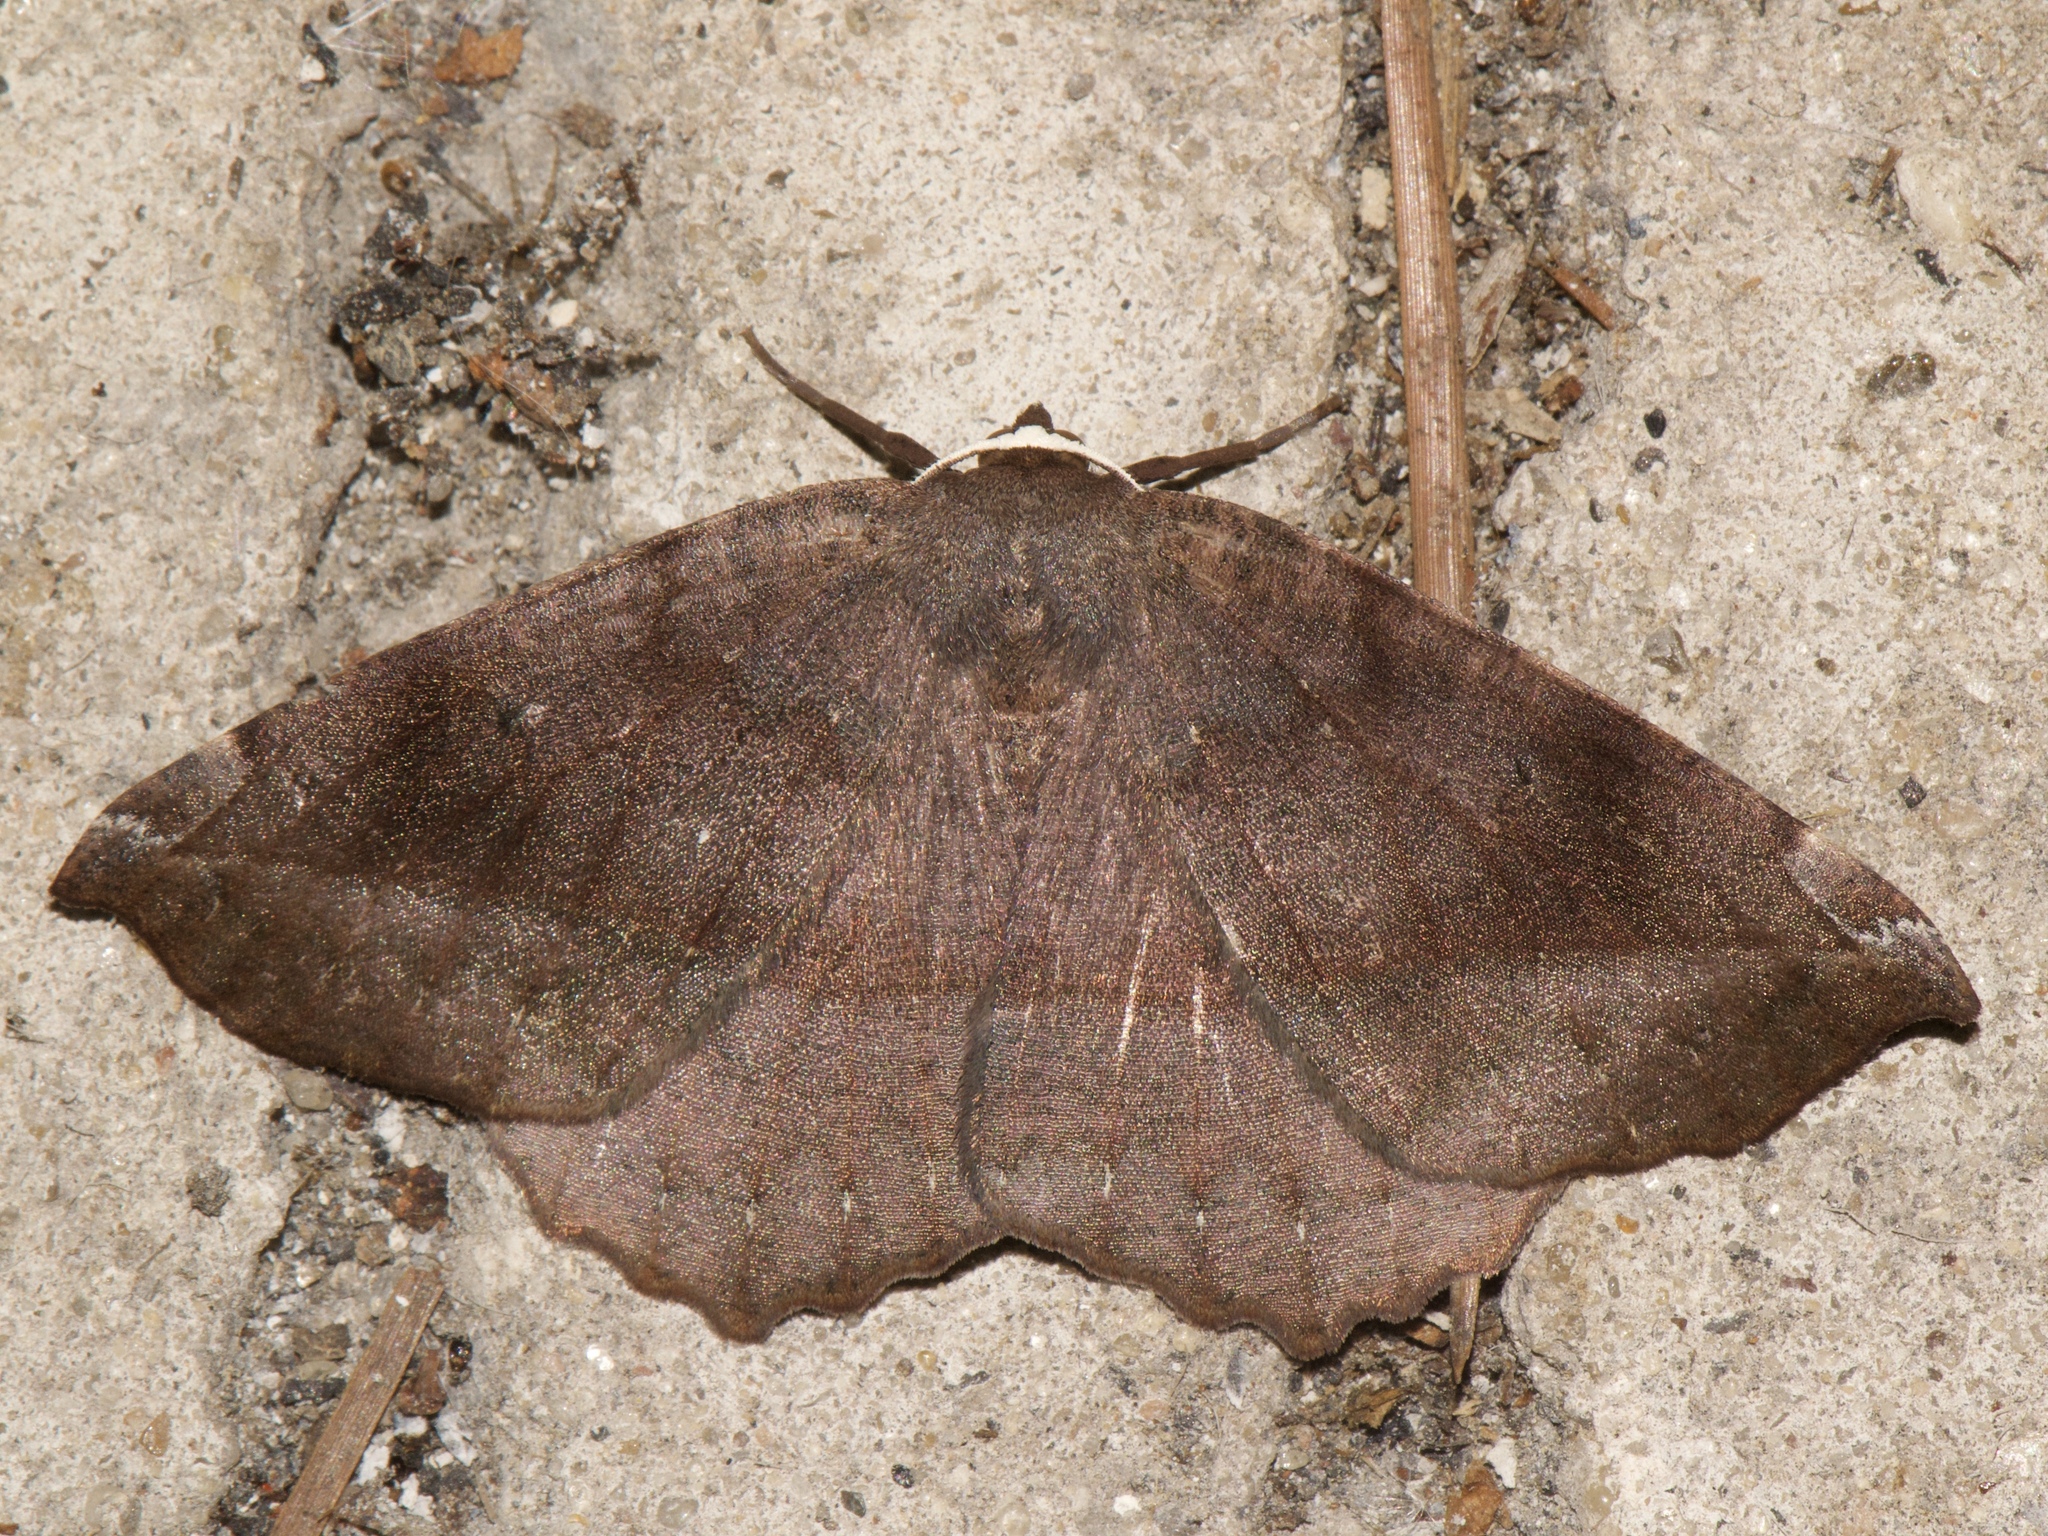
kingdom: Animalia
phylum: Arthropoda
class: Insecta
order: Lepidoptera
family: Geometridae
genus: Eutrapela
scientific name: Eutrapela clemataria
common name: Curved-toothed geometer
